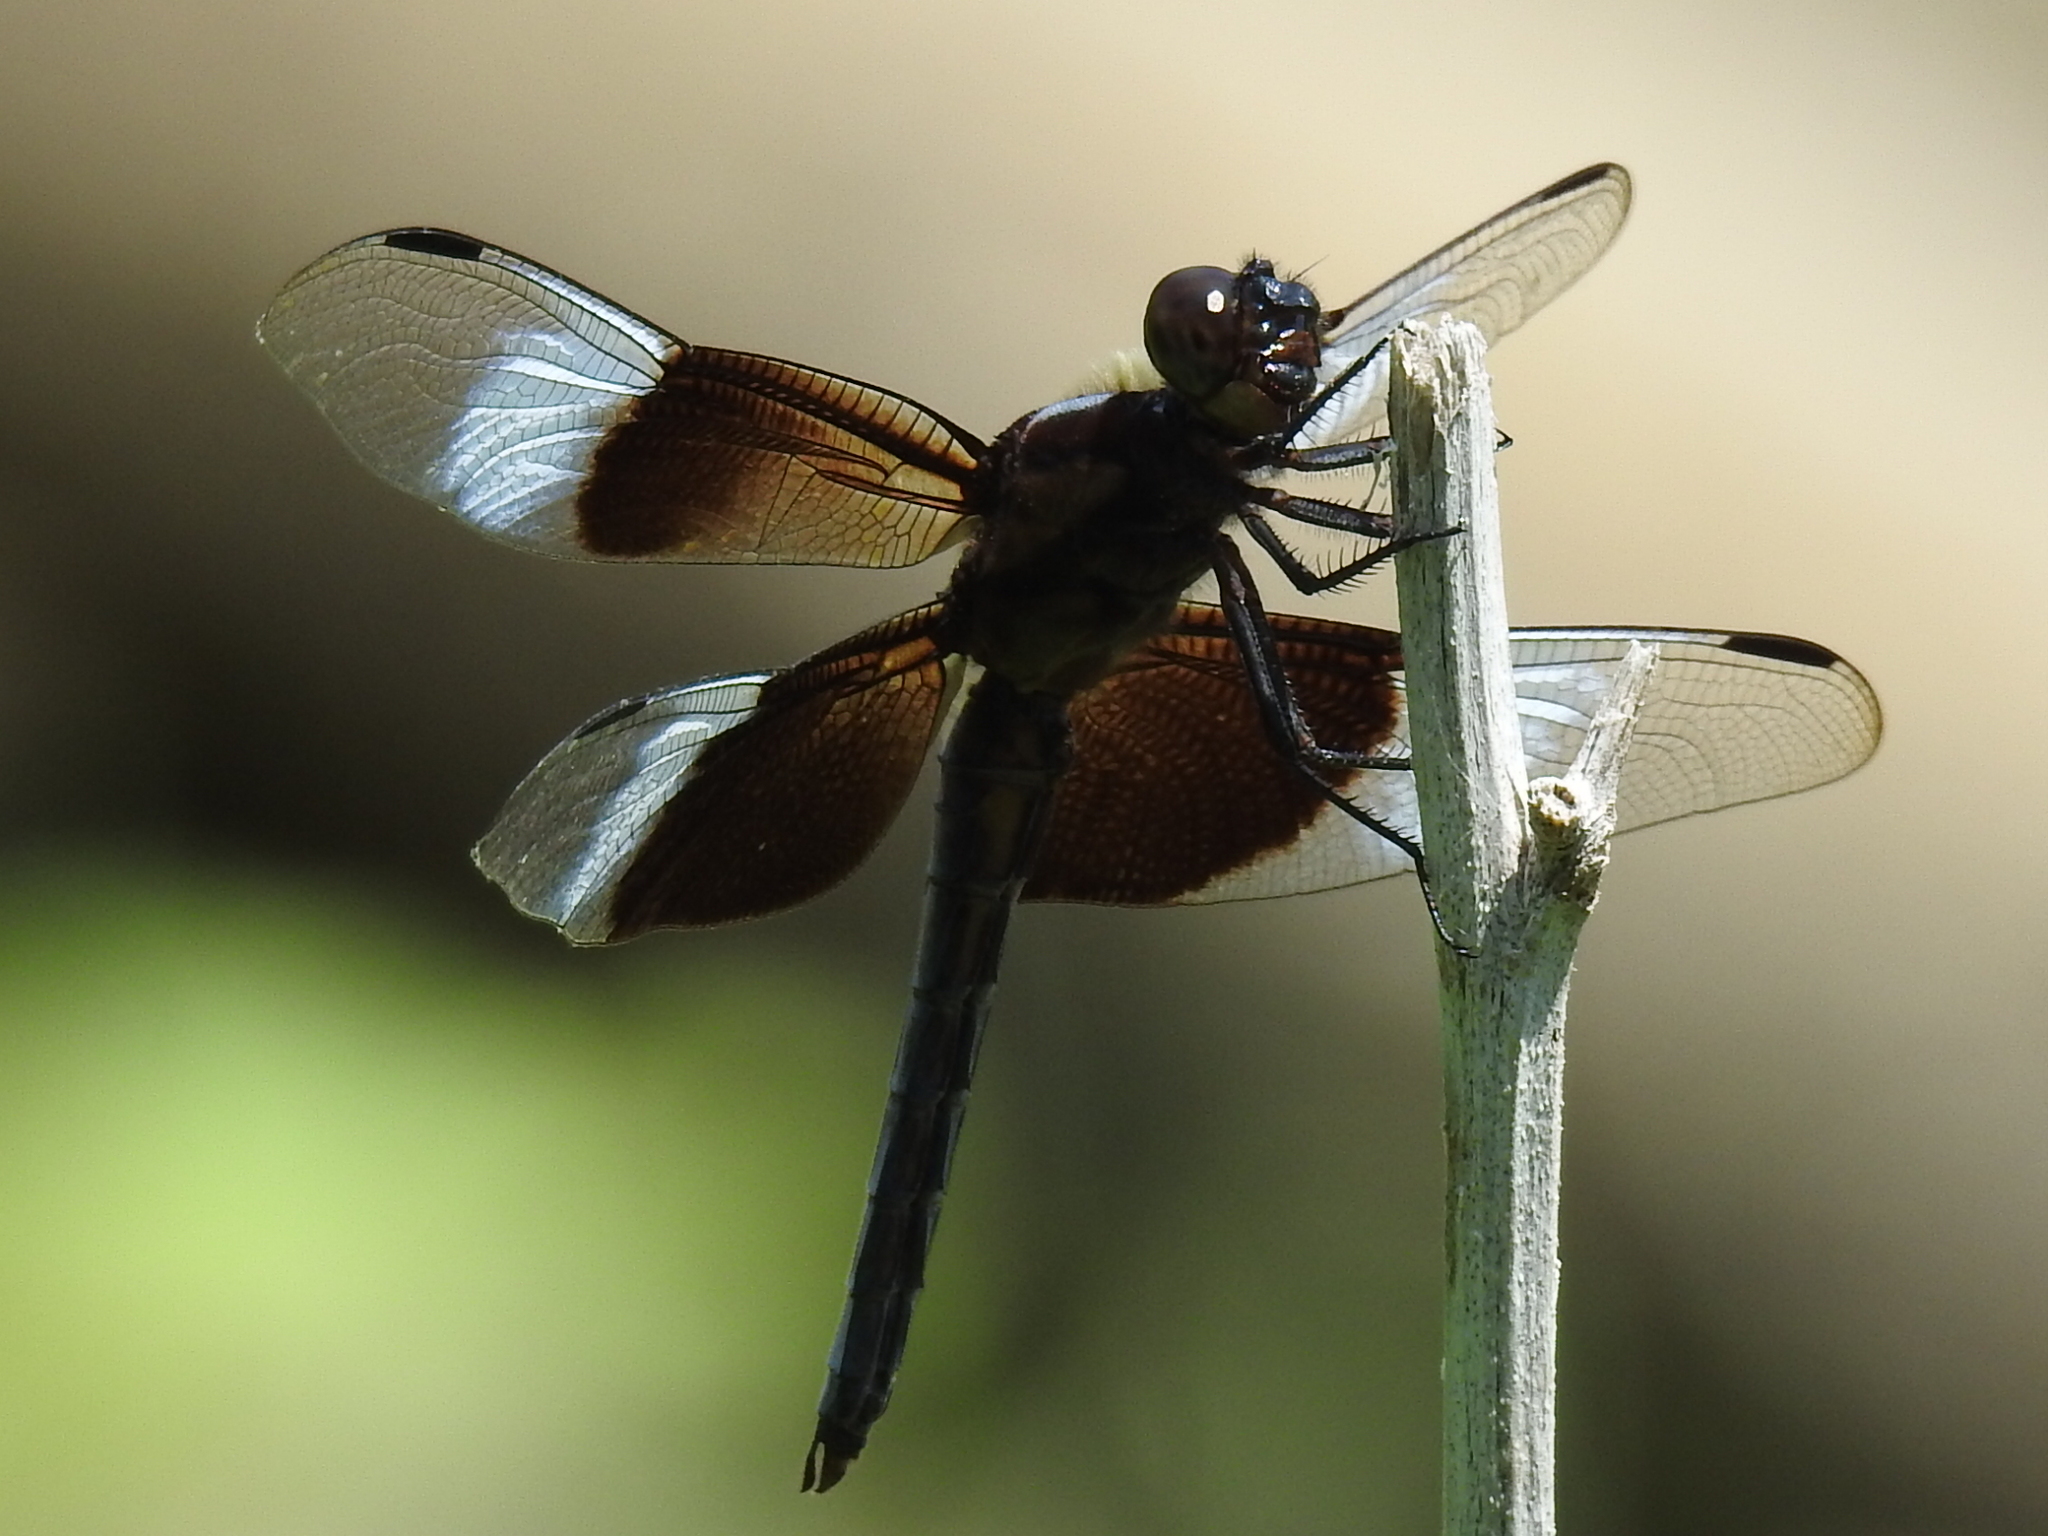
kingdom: Animalia
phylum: Arthropoda
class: Insecta
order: Odonata
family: Libellulidae
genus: Libellula
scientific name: Libellula luctuosa
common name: Widow skimmer
